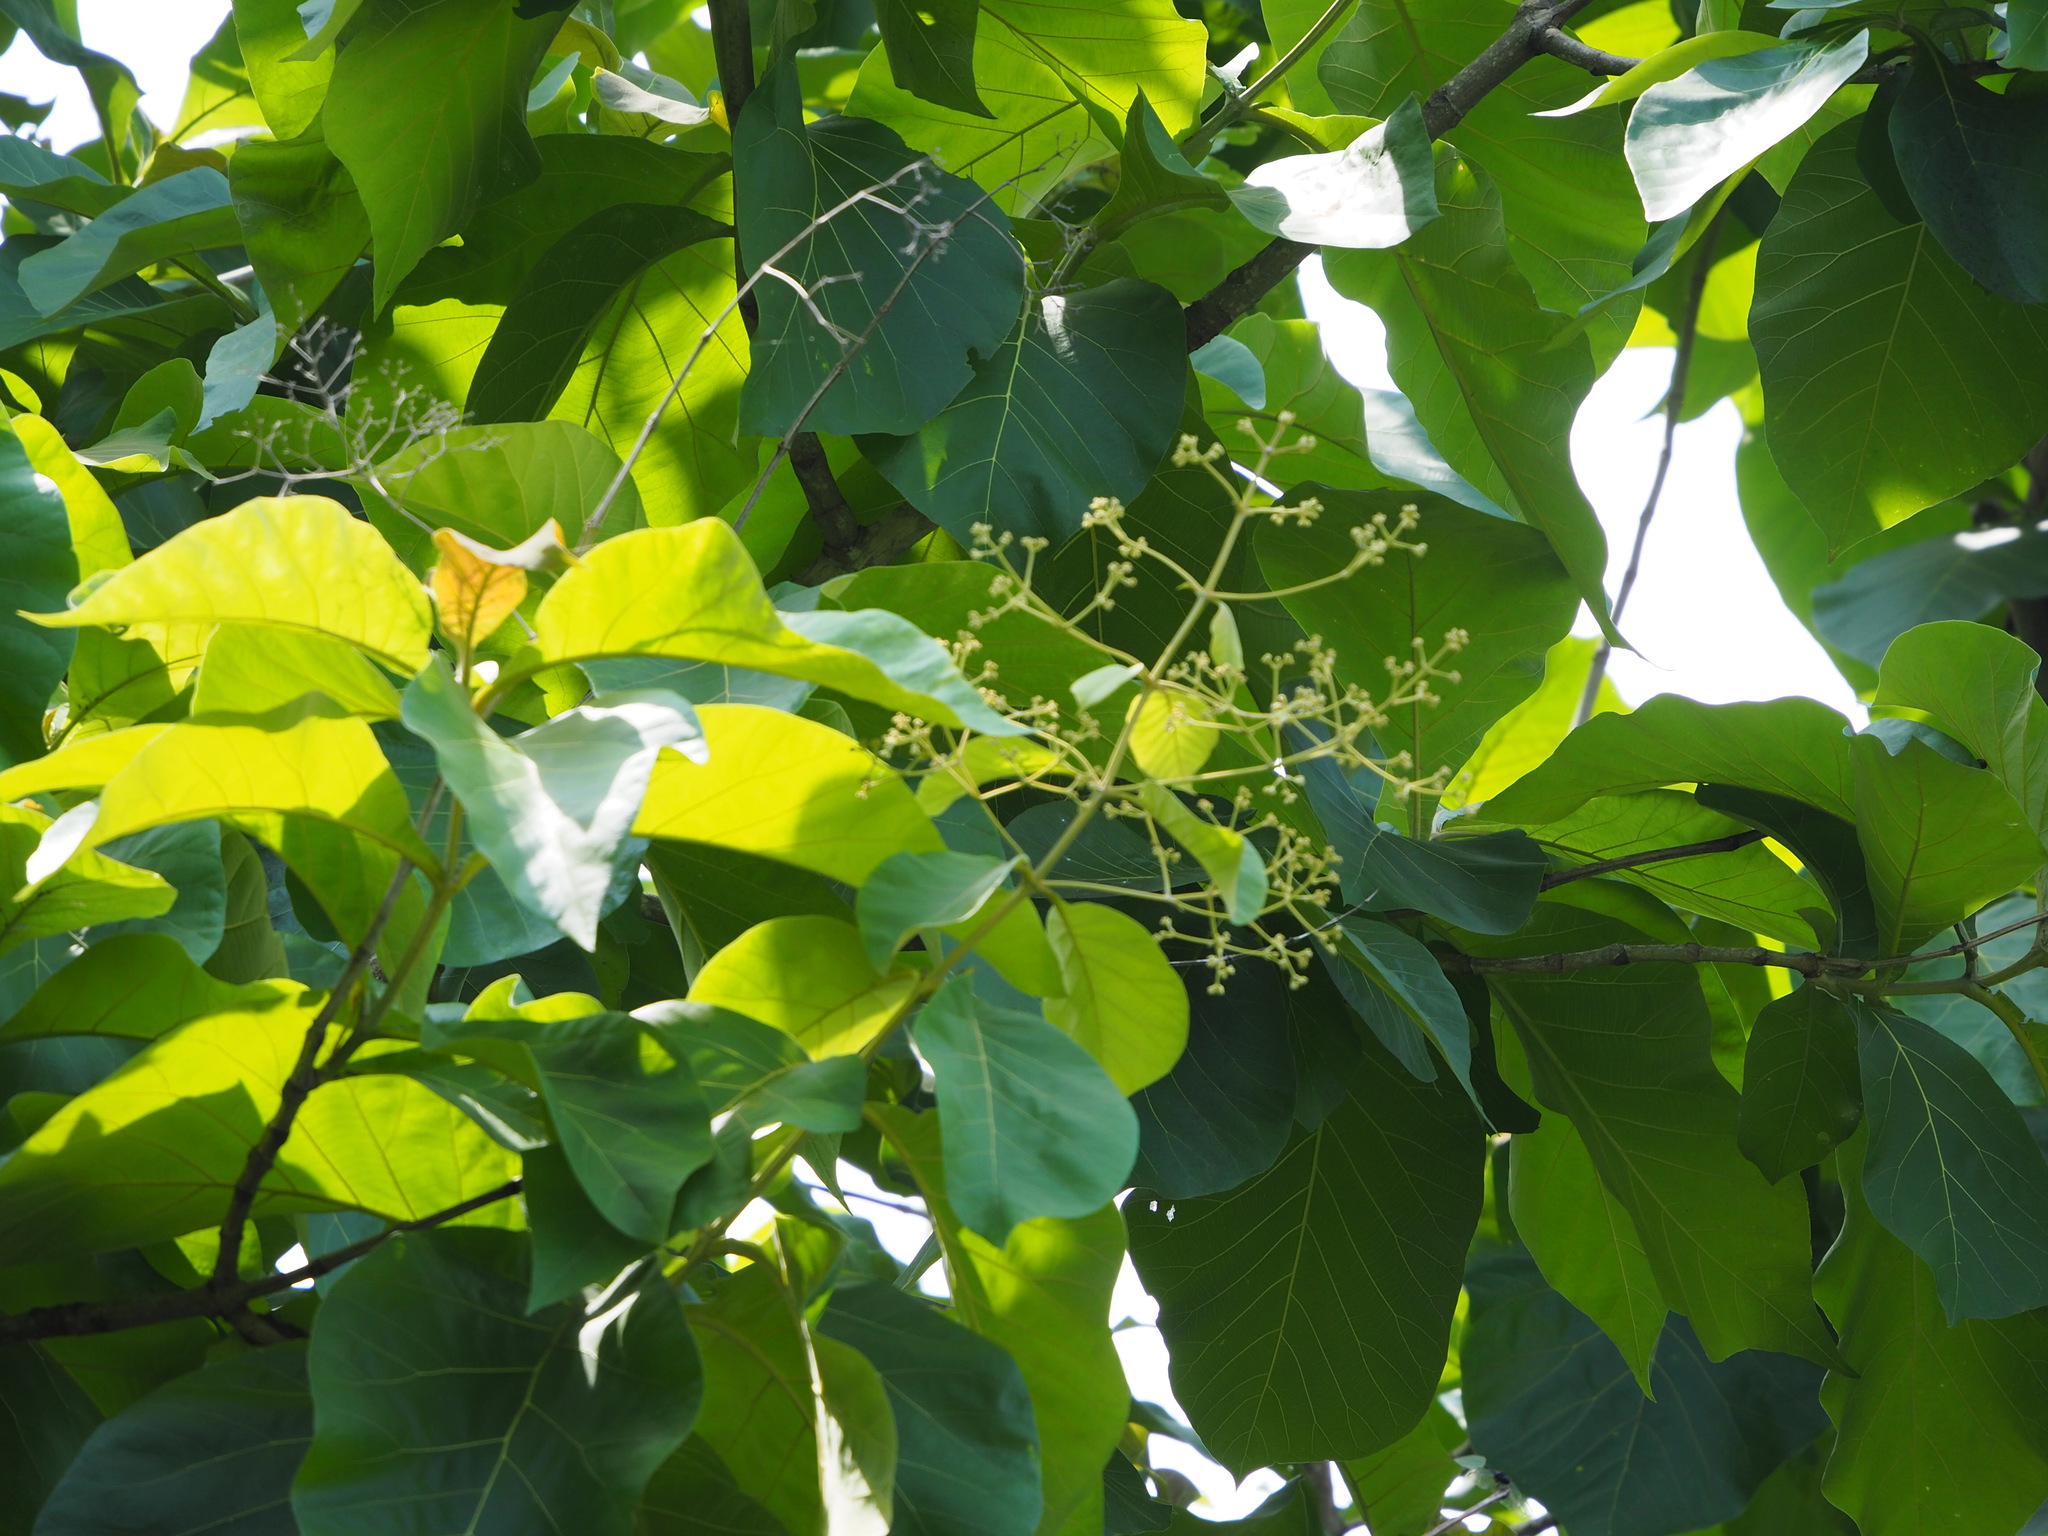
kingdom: Plantae
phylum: Tracheophyta
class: Magnoliopsida
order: Lamiales
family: Lamiaceae
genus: Tectona
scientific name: Tectona grandis
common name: Teak
